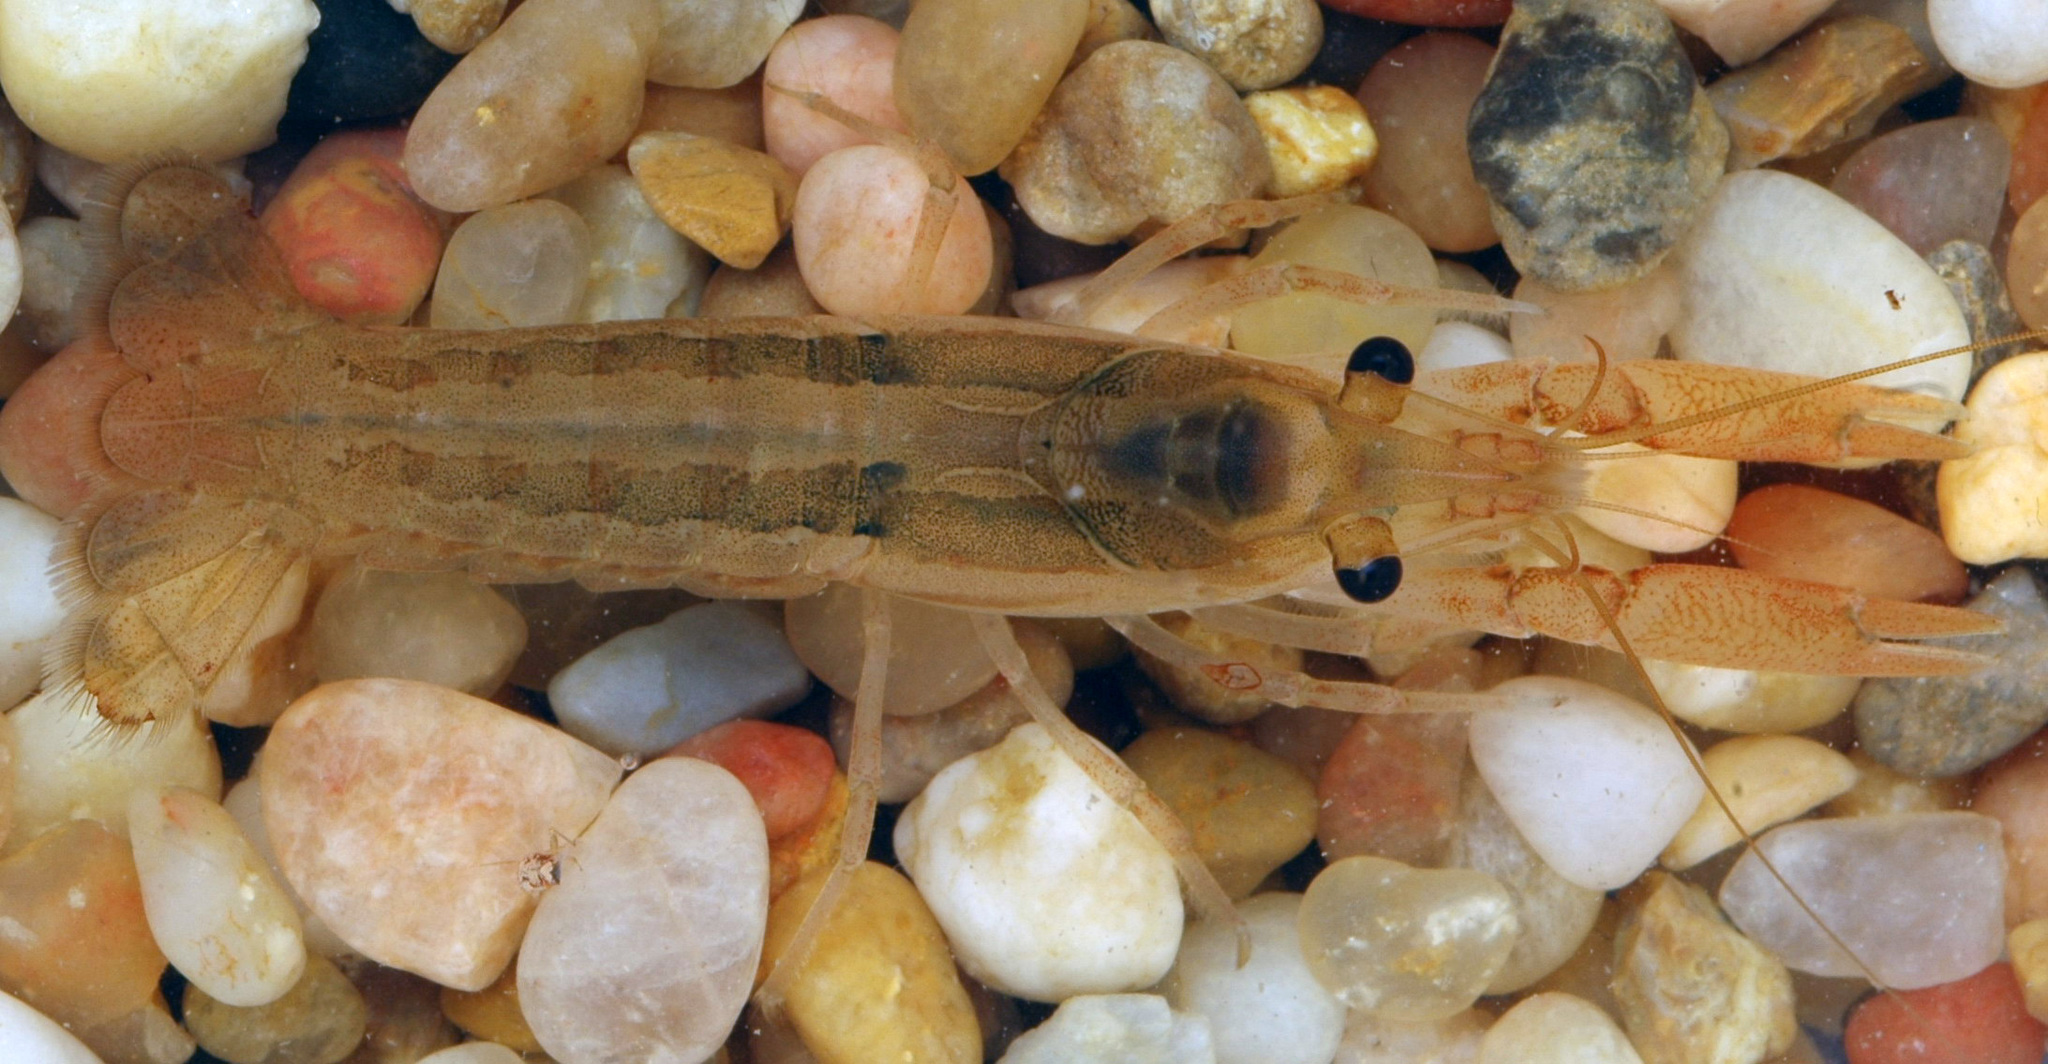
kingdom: Animalia
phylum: Arthropoda
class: Malacostraca
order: Decapoda
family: Cambaridae
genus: Procambarus
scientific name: Procambarus hinei
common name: Marsh crayfish
